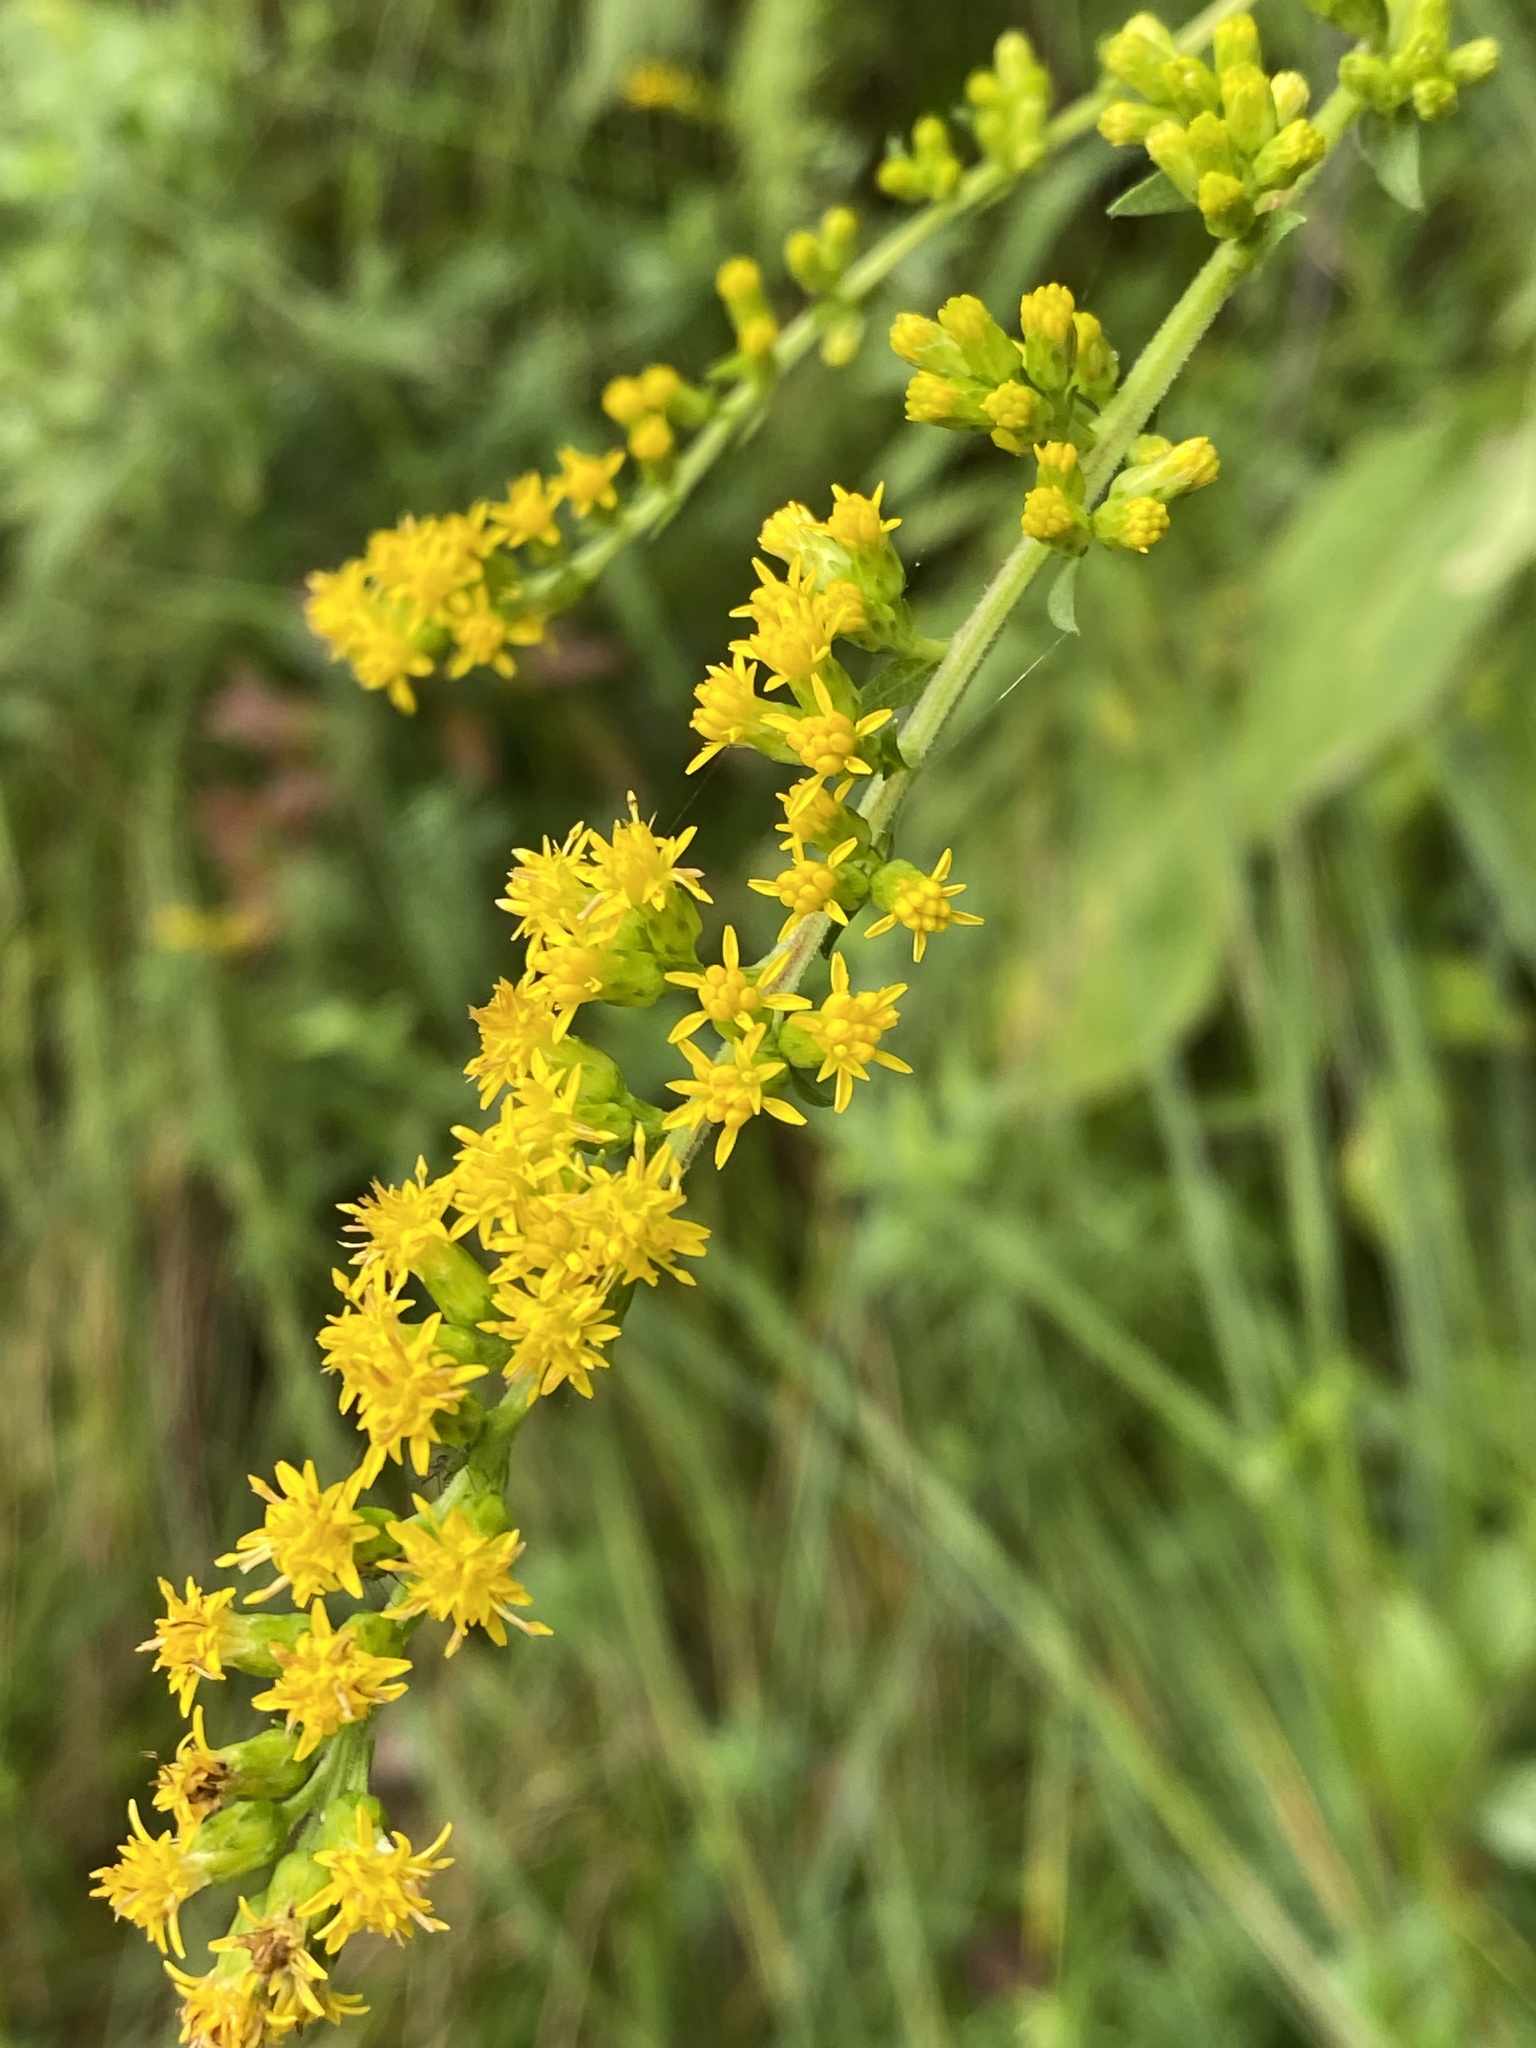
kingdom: Plantae
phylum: Tracheophyta
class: Magnoliopsida
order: Asterales
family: Asteraceae
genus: Solidago
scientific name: Solidago patula
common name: Rough-leaf goldenrod
